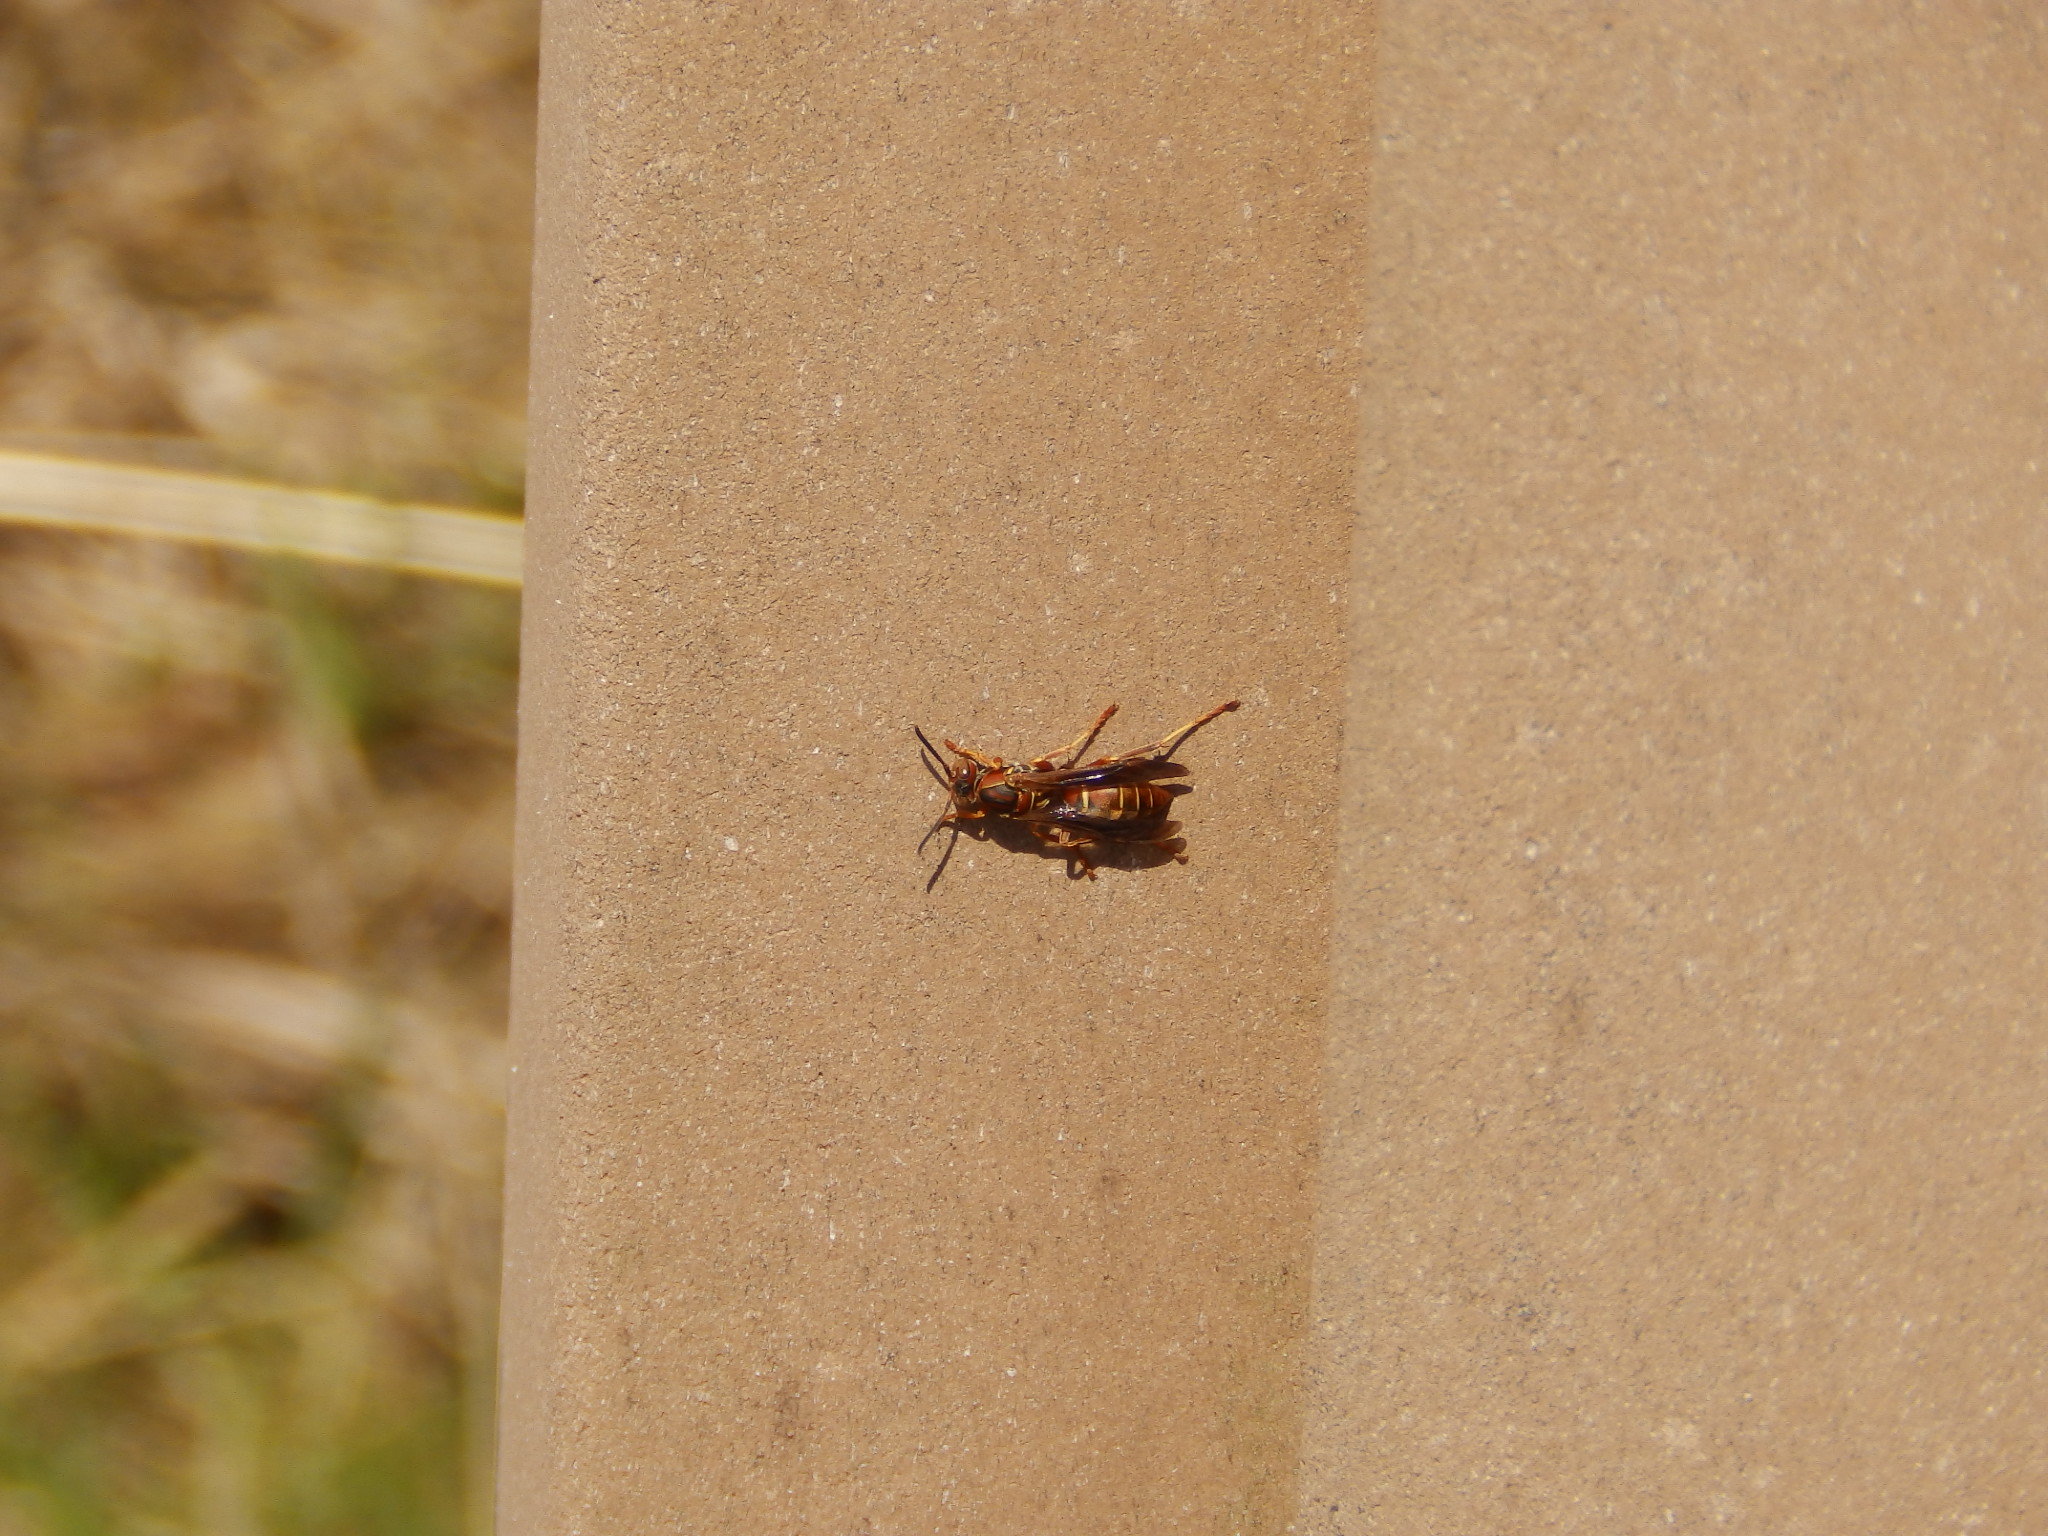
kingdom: Animalia
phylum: Arthropoda
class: Insecta
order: Hymenoptera
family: Eumenidae
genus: Polistes
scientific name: Polistes fuscatus
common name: Dark paper wasp
